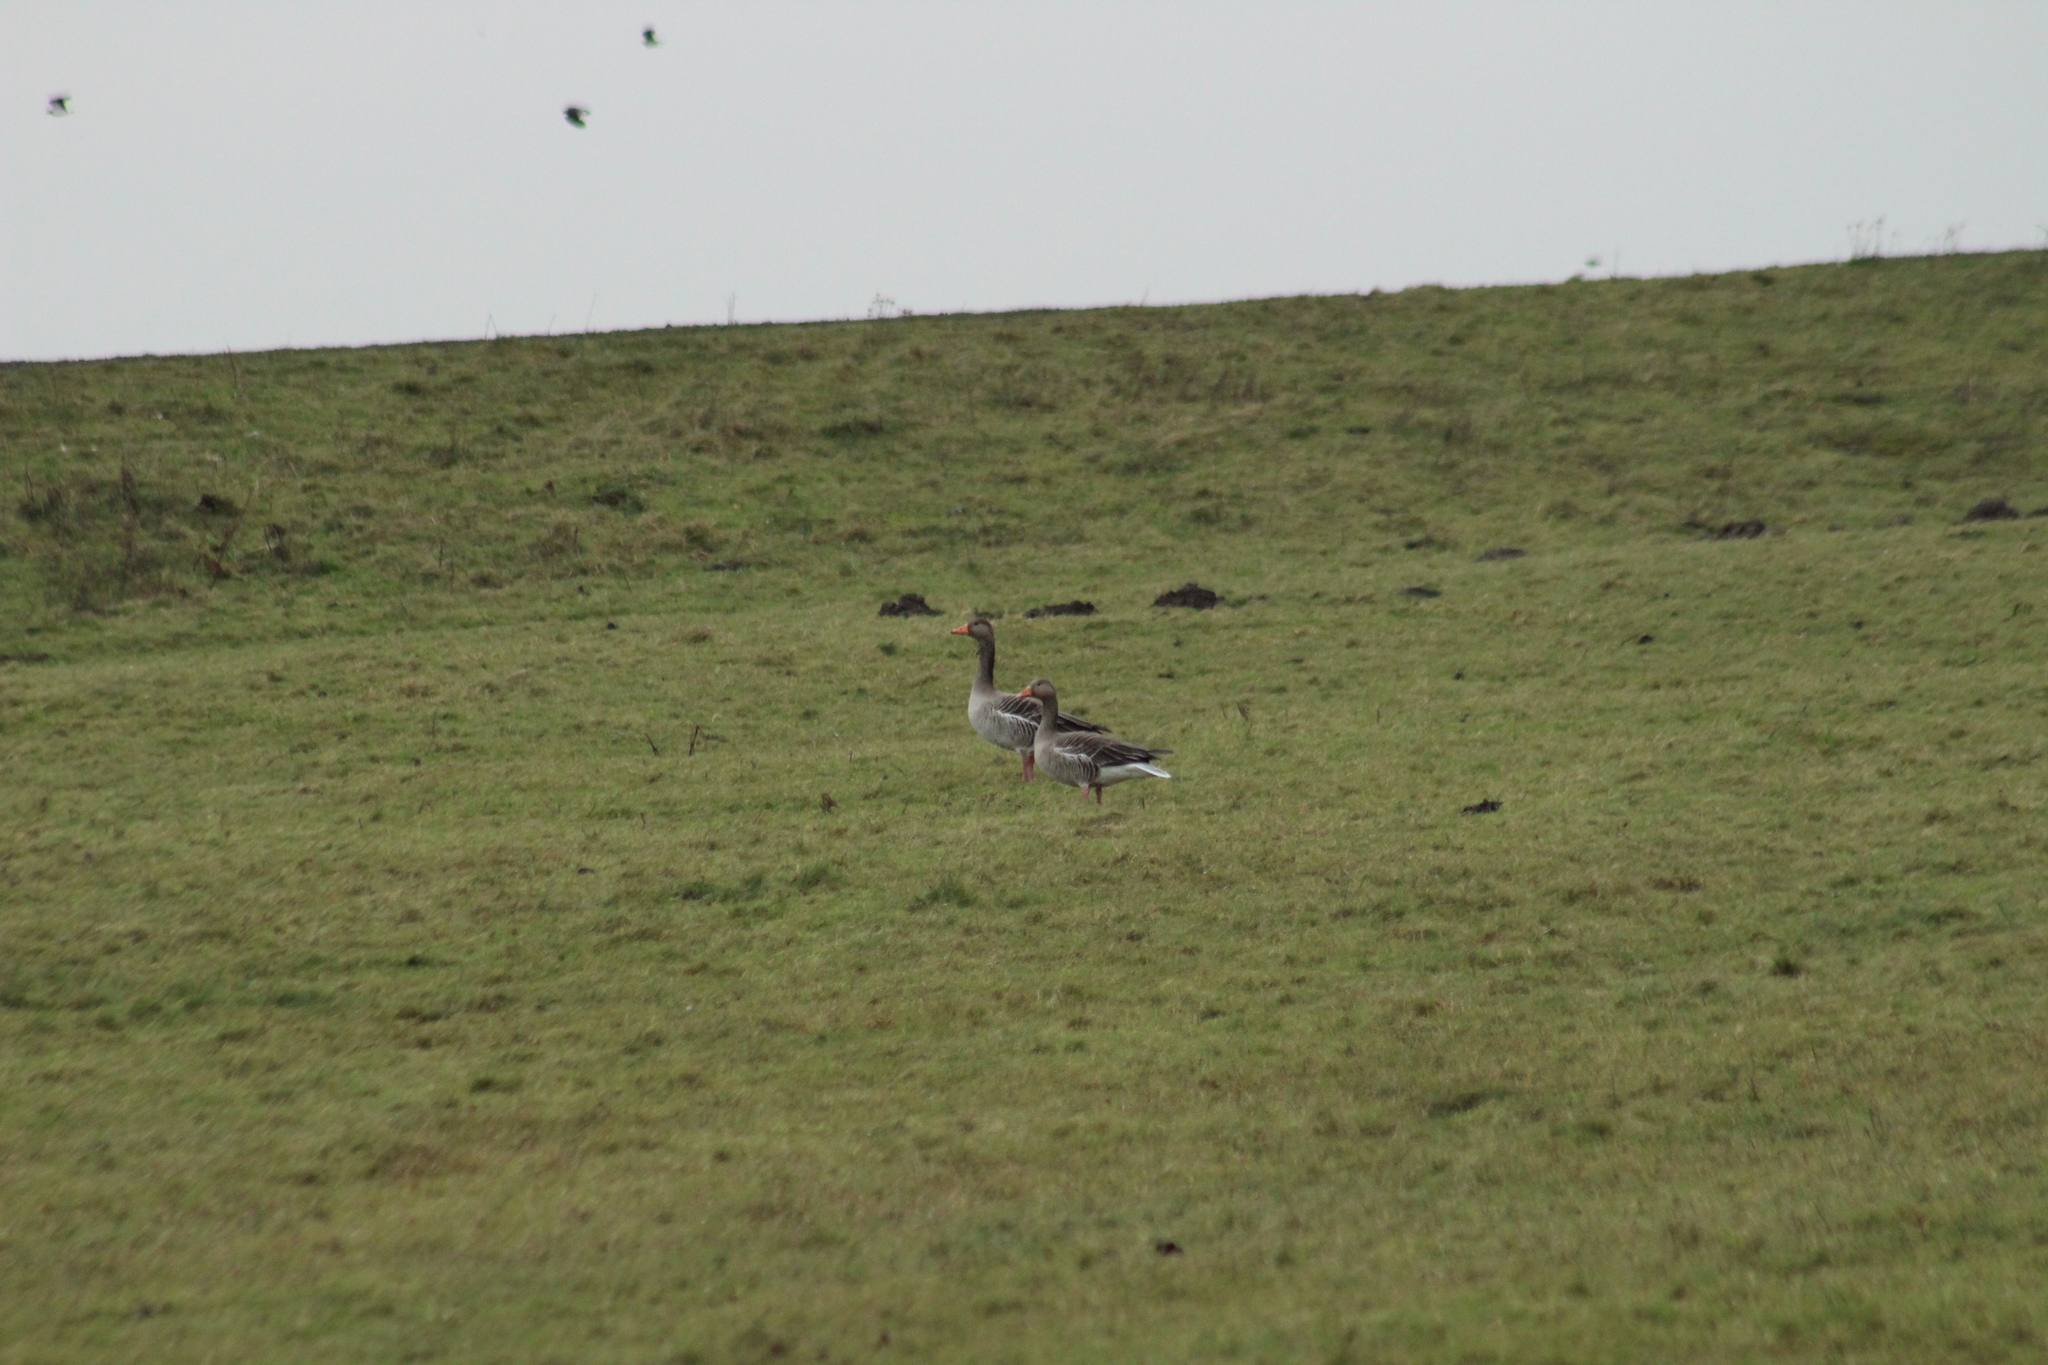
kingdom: Animalia
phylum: Chordata
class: Aves
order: Anseriformes
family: Anatidae
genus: Anser
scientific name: Anser anser
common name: Greylag goose
